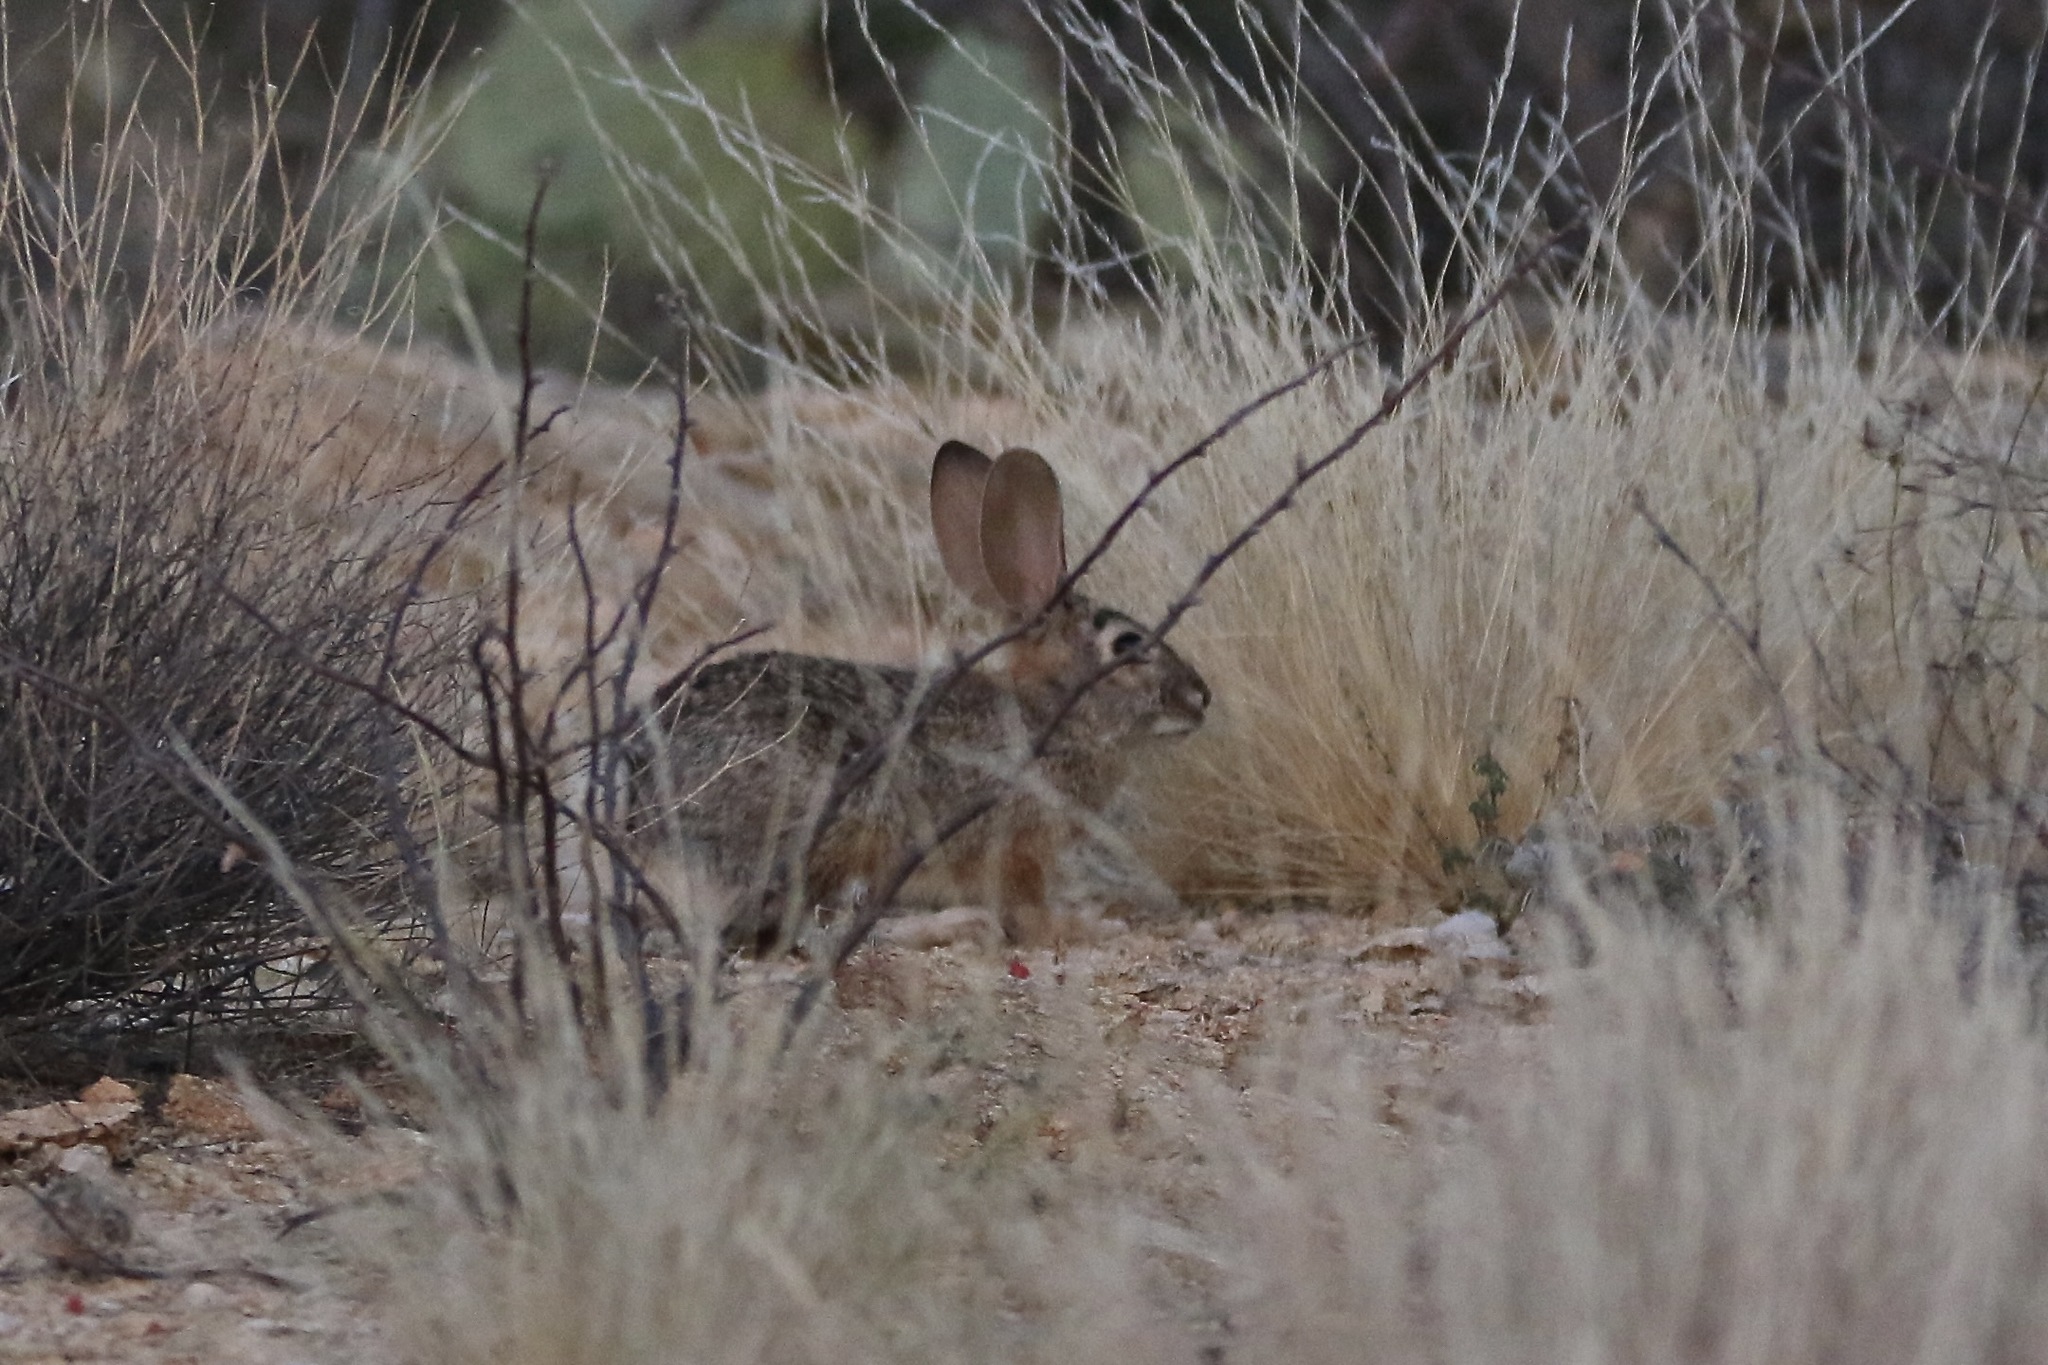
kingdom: Animalia
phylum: Chordata
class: Mammalia
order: Lagomorpha
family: Leporidae
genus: Sylvilagus
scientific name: Sylvilagus audubonii
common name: Desert cottontail
